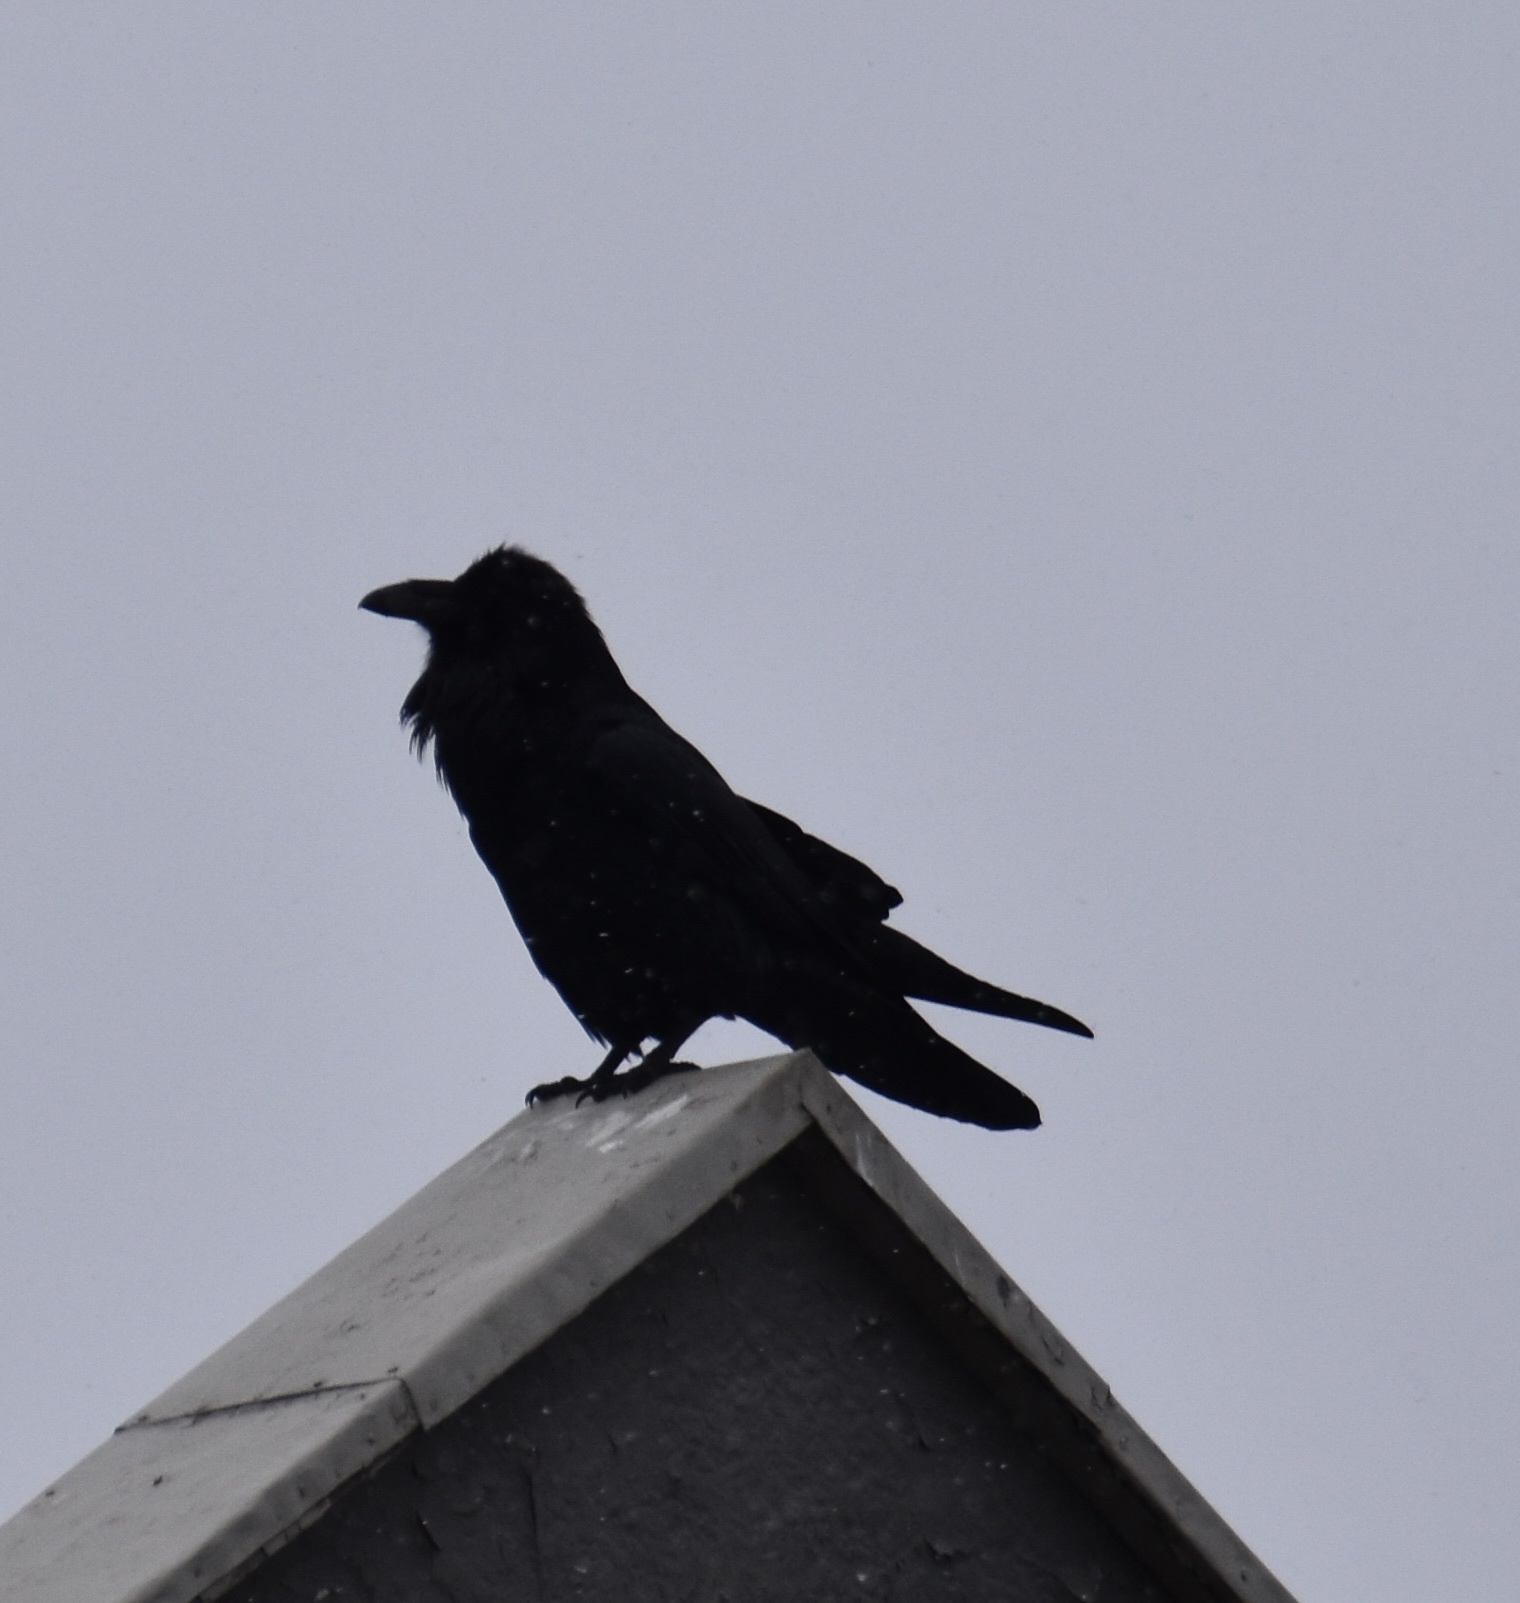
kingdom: Animalia
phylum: Chordata
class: Aves
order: Passeriformes
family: Corvidae
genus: Corvus
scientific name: Corvus corax
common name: Common raven
